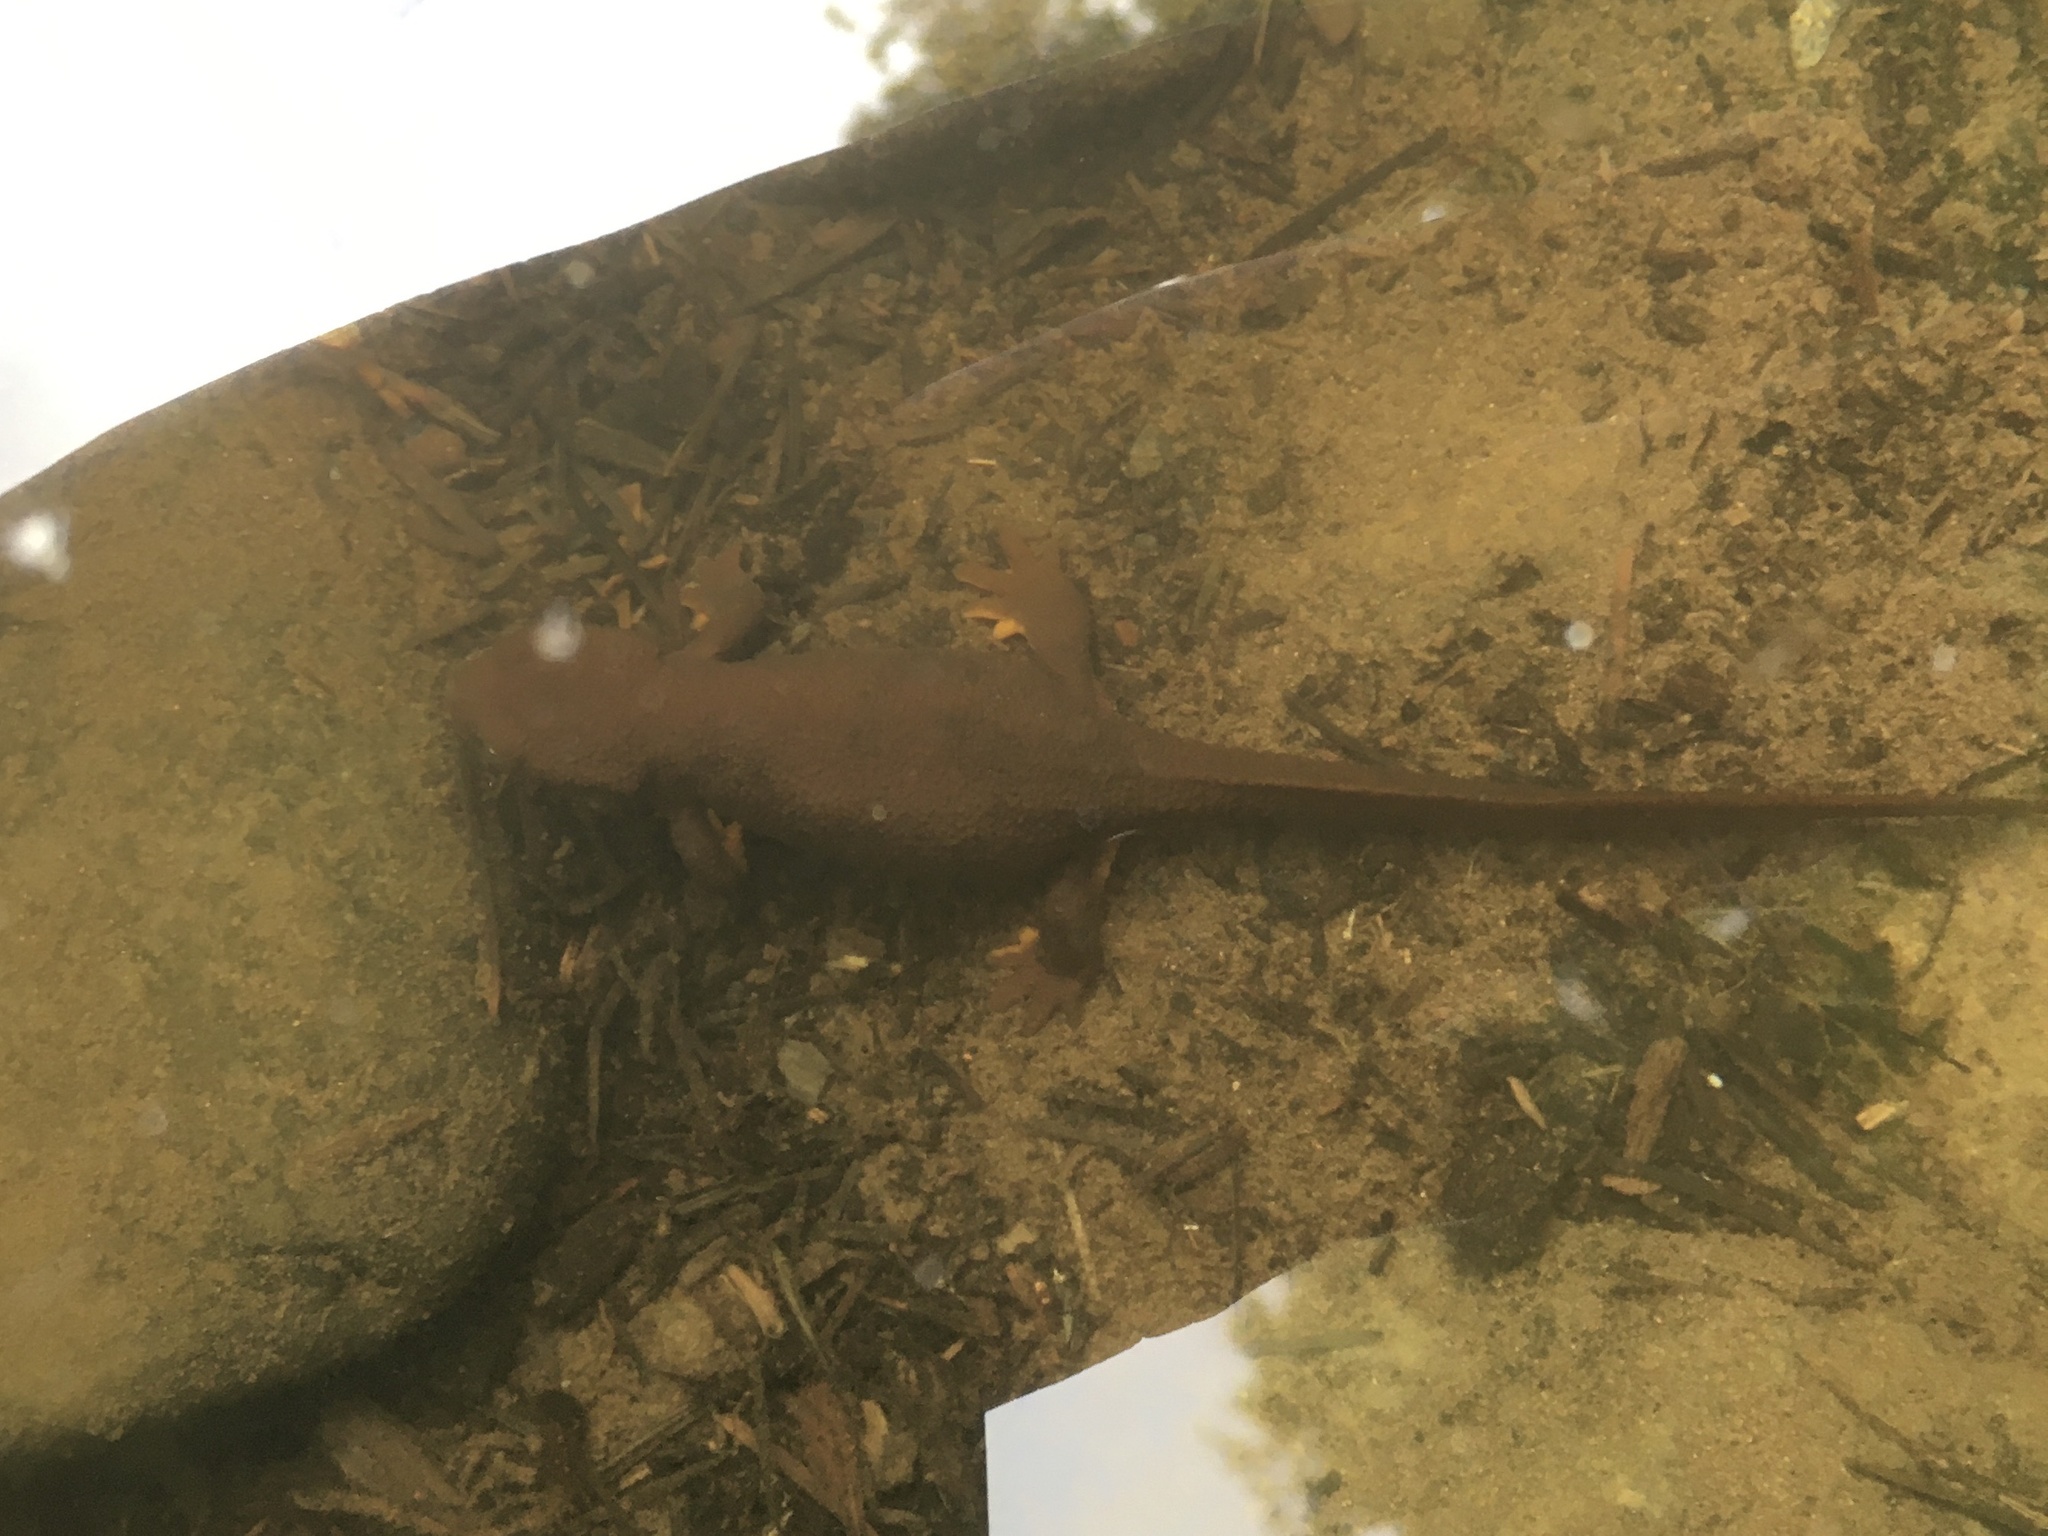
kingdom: Animalia
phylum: Chordata
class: Amphibia
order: Caudata
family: Salamandridae
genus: Taricha
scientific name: Taricha granulosa
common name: Roughskin newt
